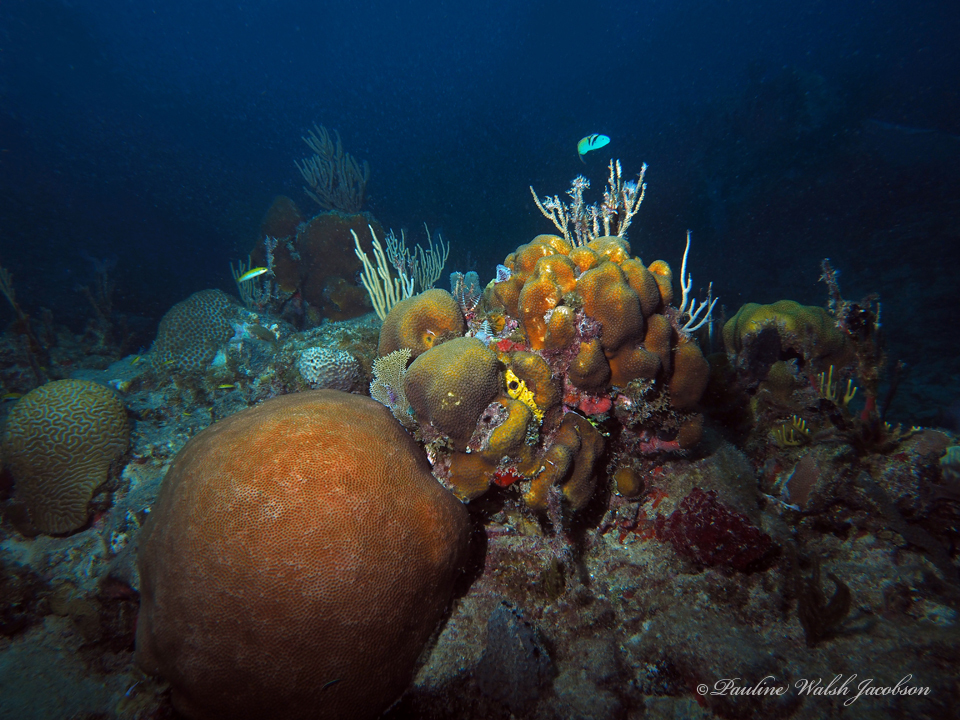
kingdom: Animalia
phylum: Cnidaria
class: Anthozoa
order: Scleractinia
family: Rhizangiidae
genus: Siderastrea
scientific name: Siderastrea siderea
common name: Massive starlet coral
